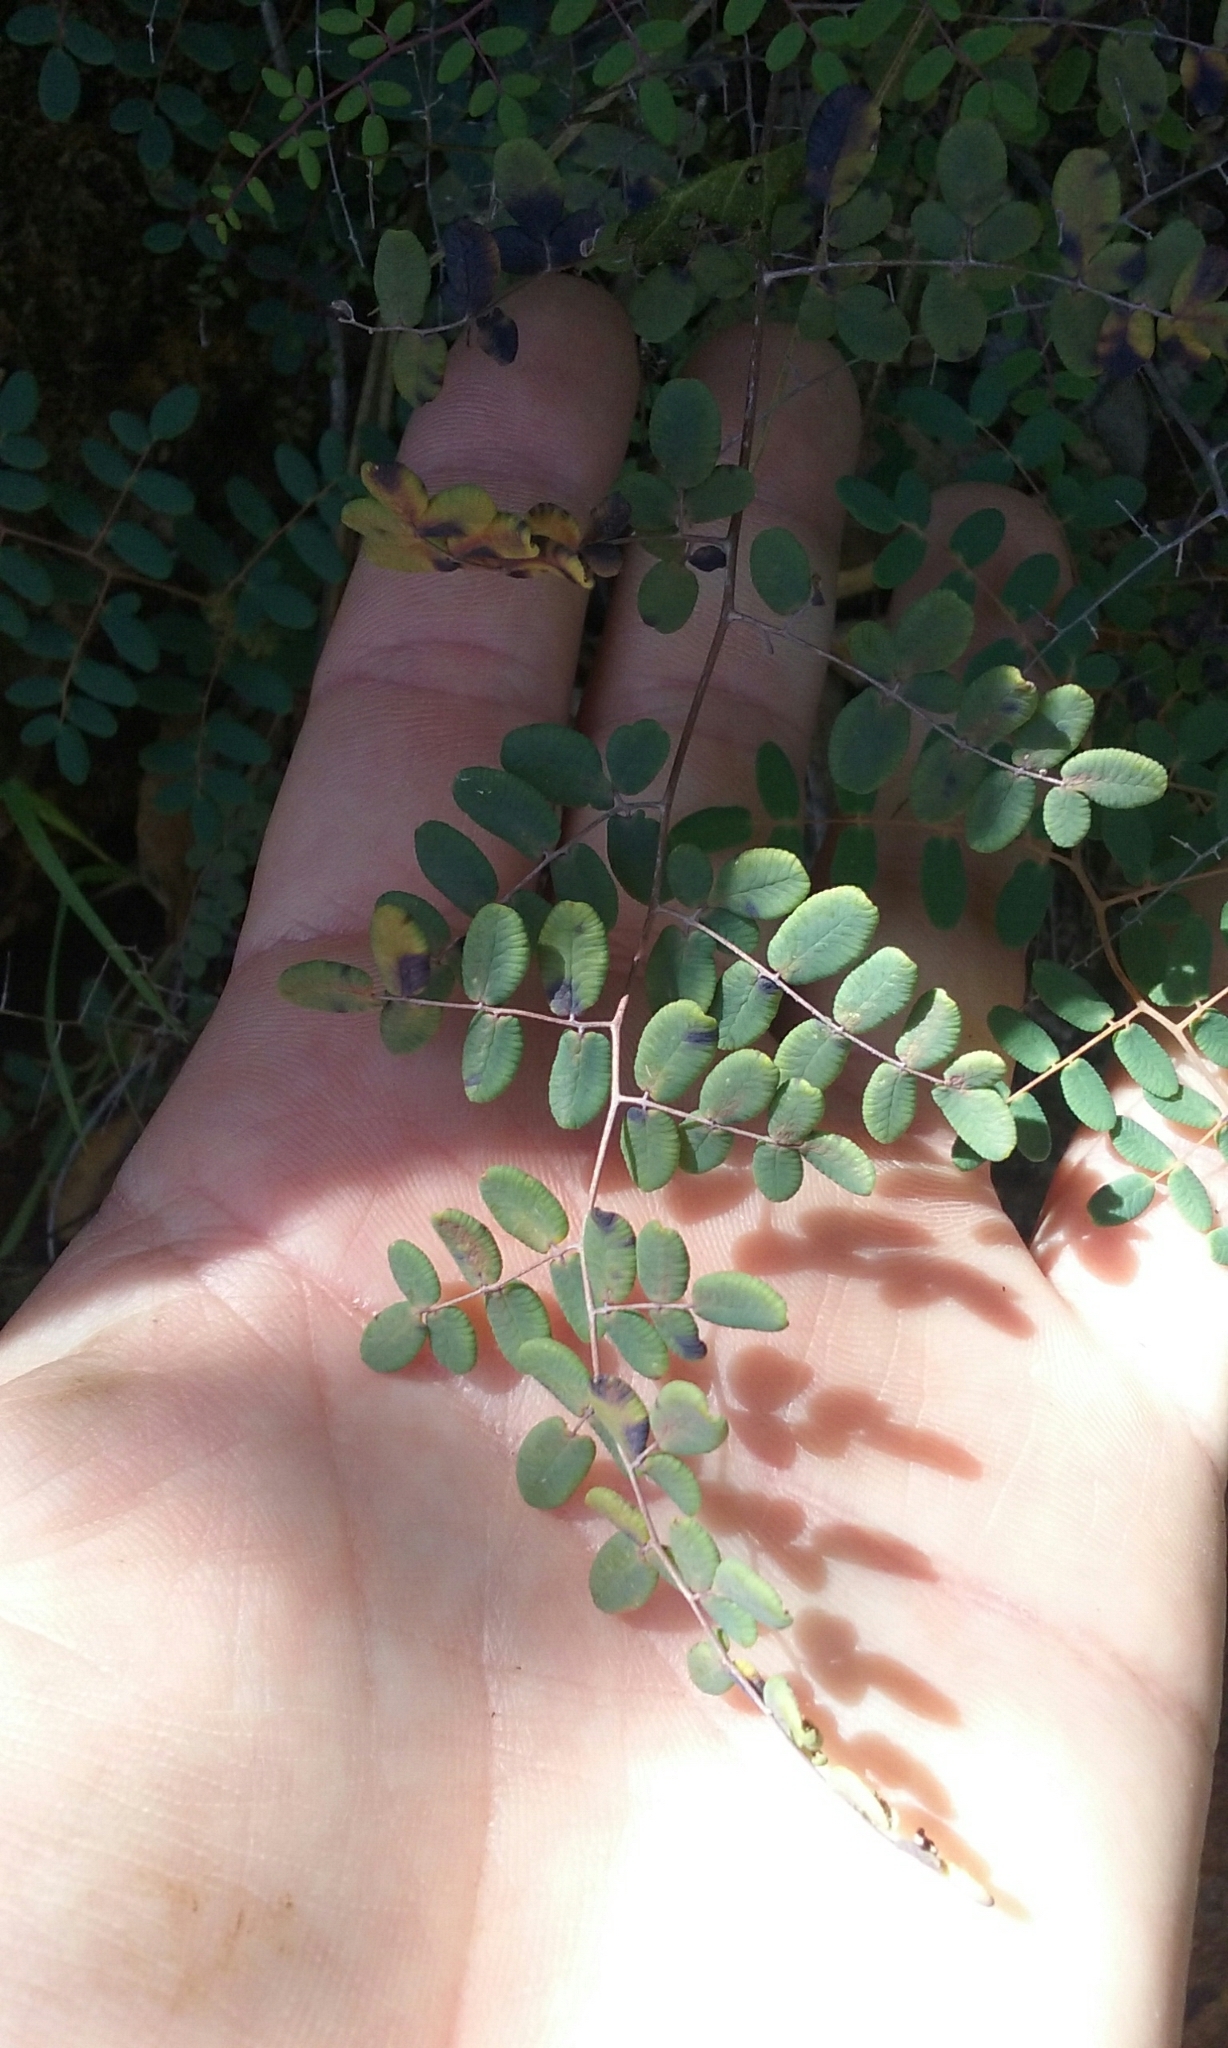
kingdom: Plantae
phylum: Tracheophyta
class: Polypodiopsida
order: Polypodiales
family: Pteridaceae
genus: Pellaea
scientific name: Pellaea andromedifolia
